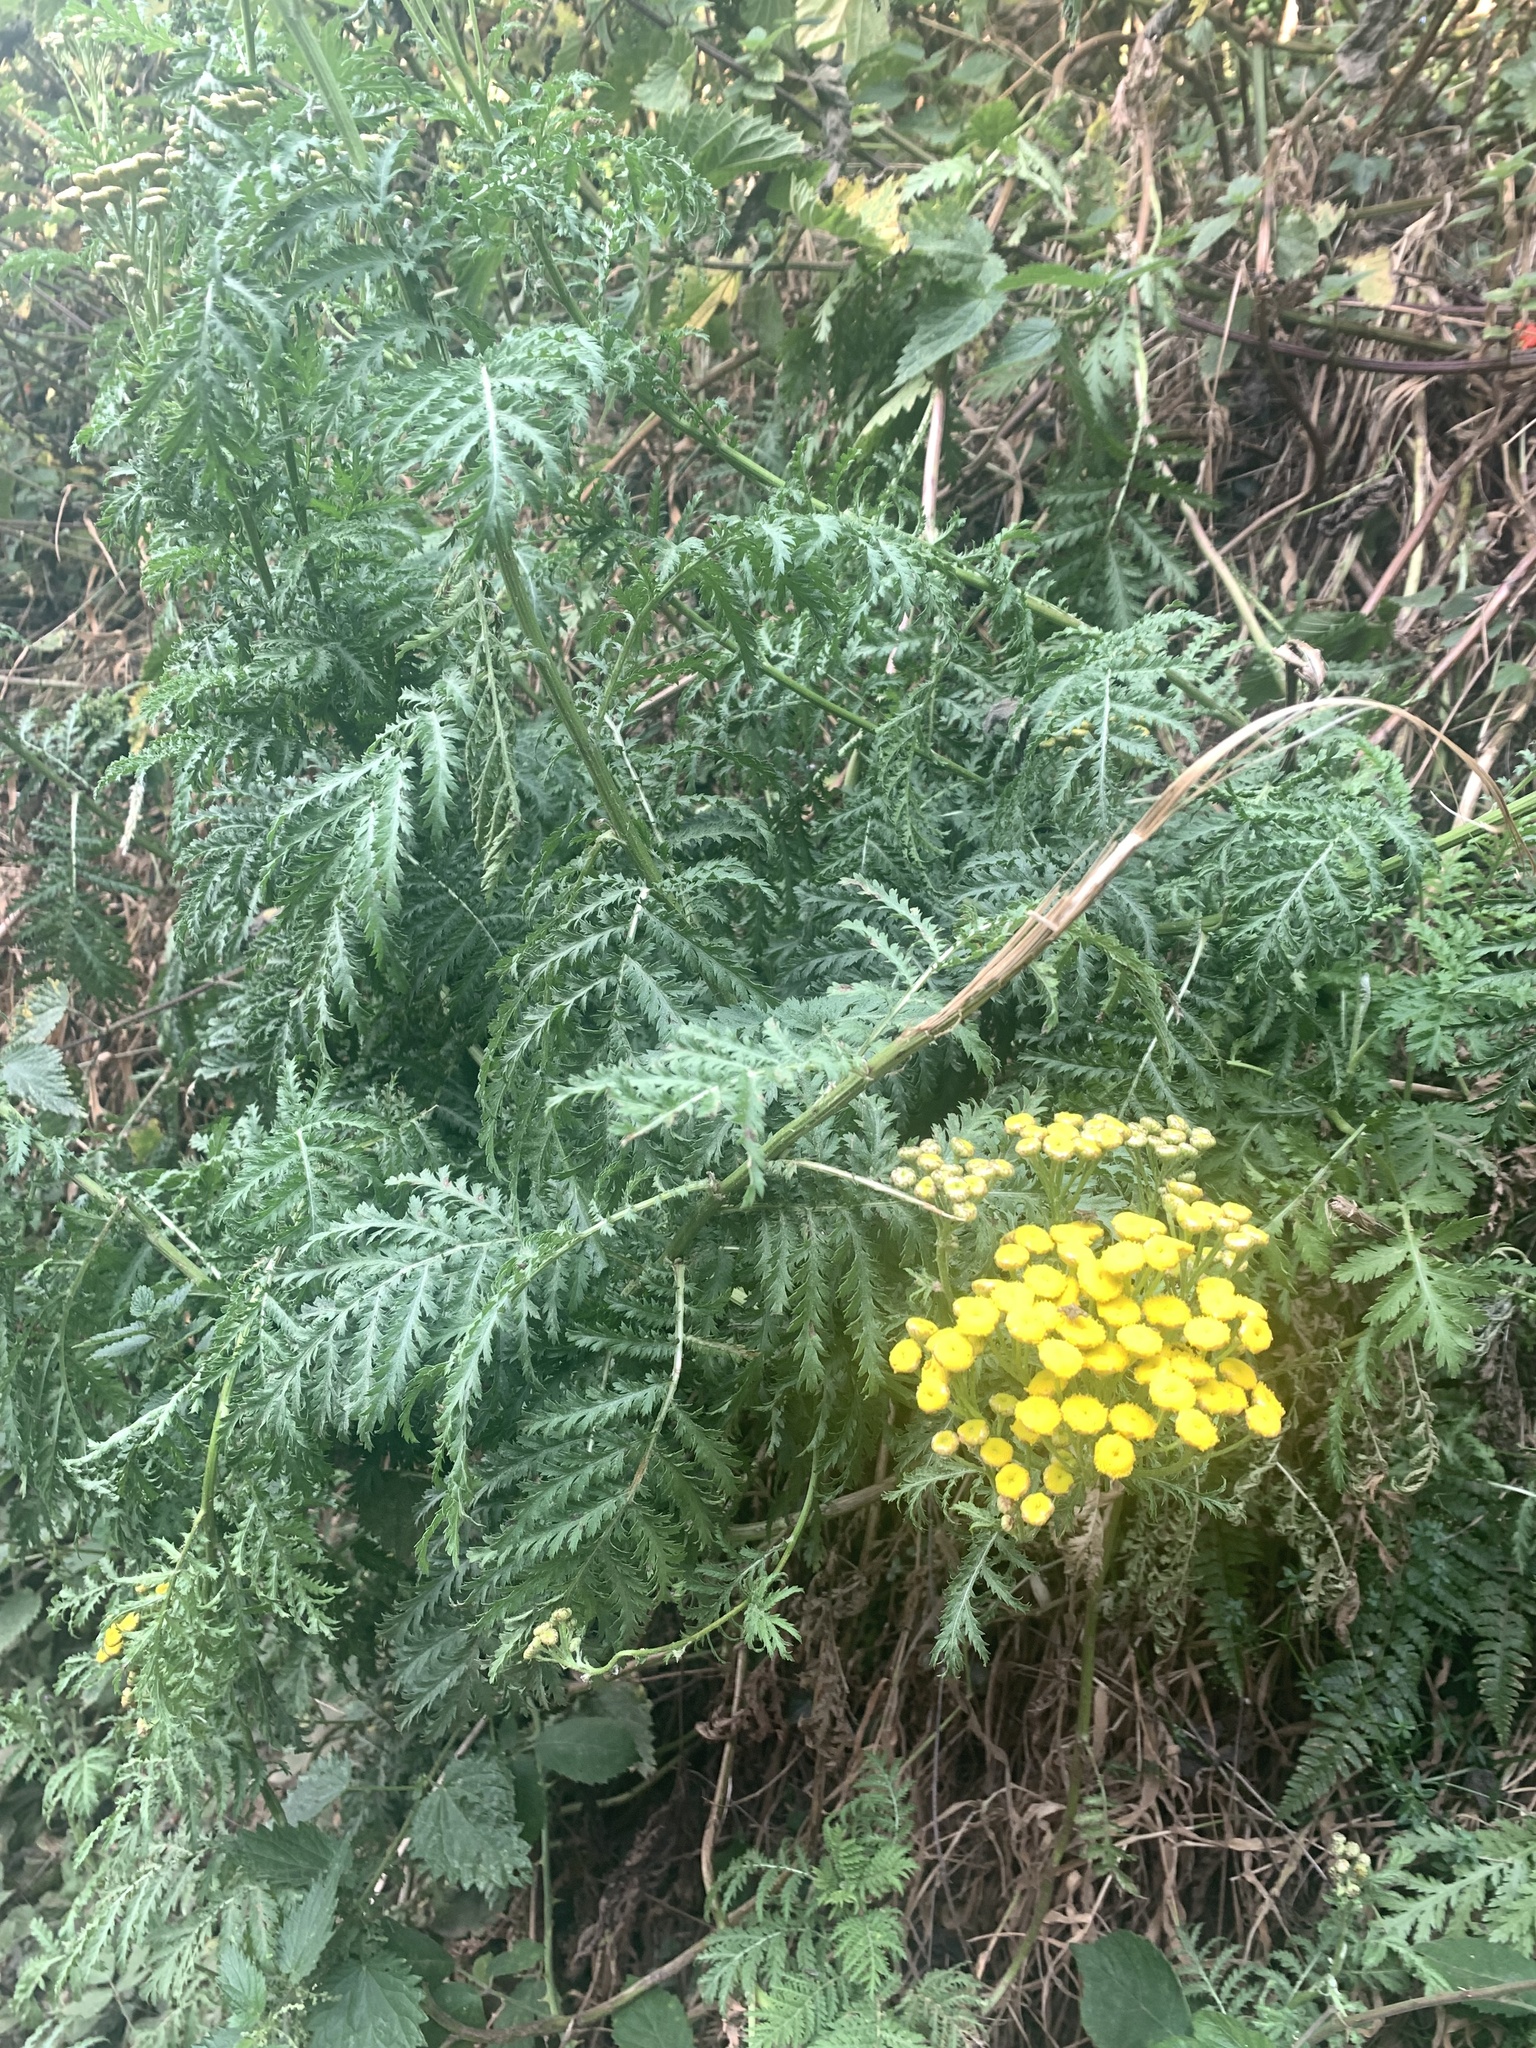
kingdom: Plantae
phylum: Tracheophyta
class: Magnoliopsida
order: Asterales
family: Asteraceae
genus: Tanacetum
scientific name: Tanacetum vulgare
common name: Common tansy
